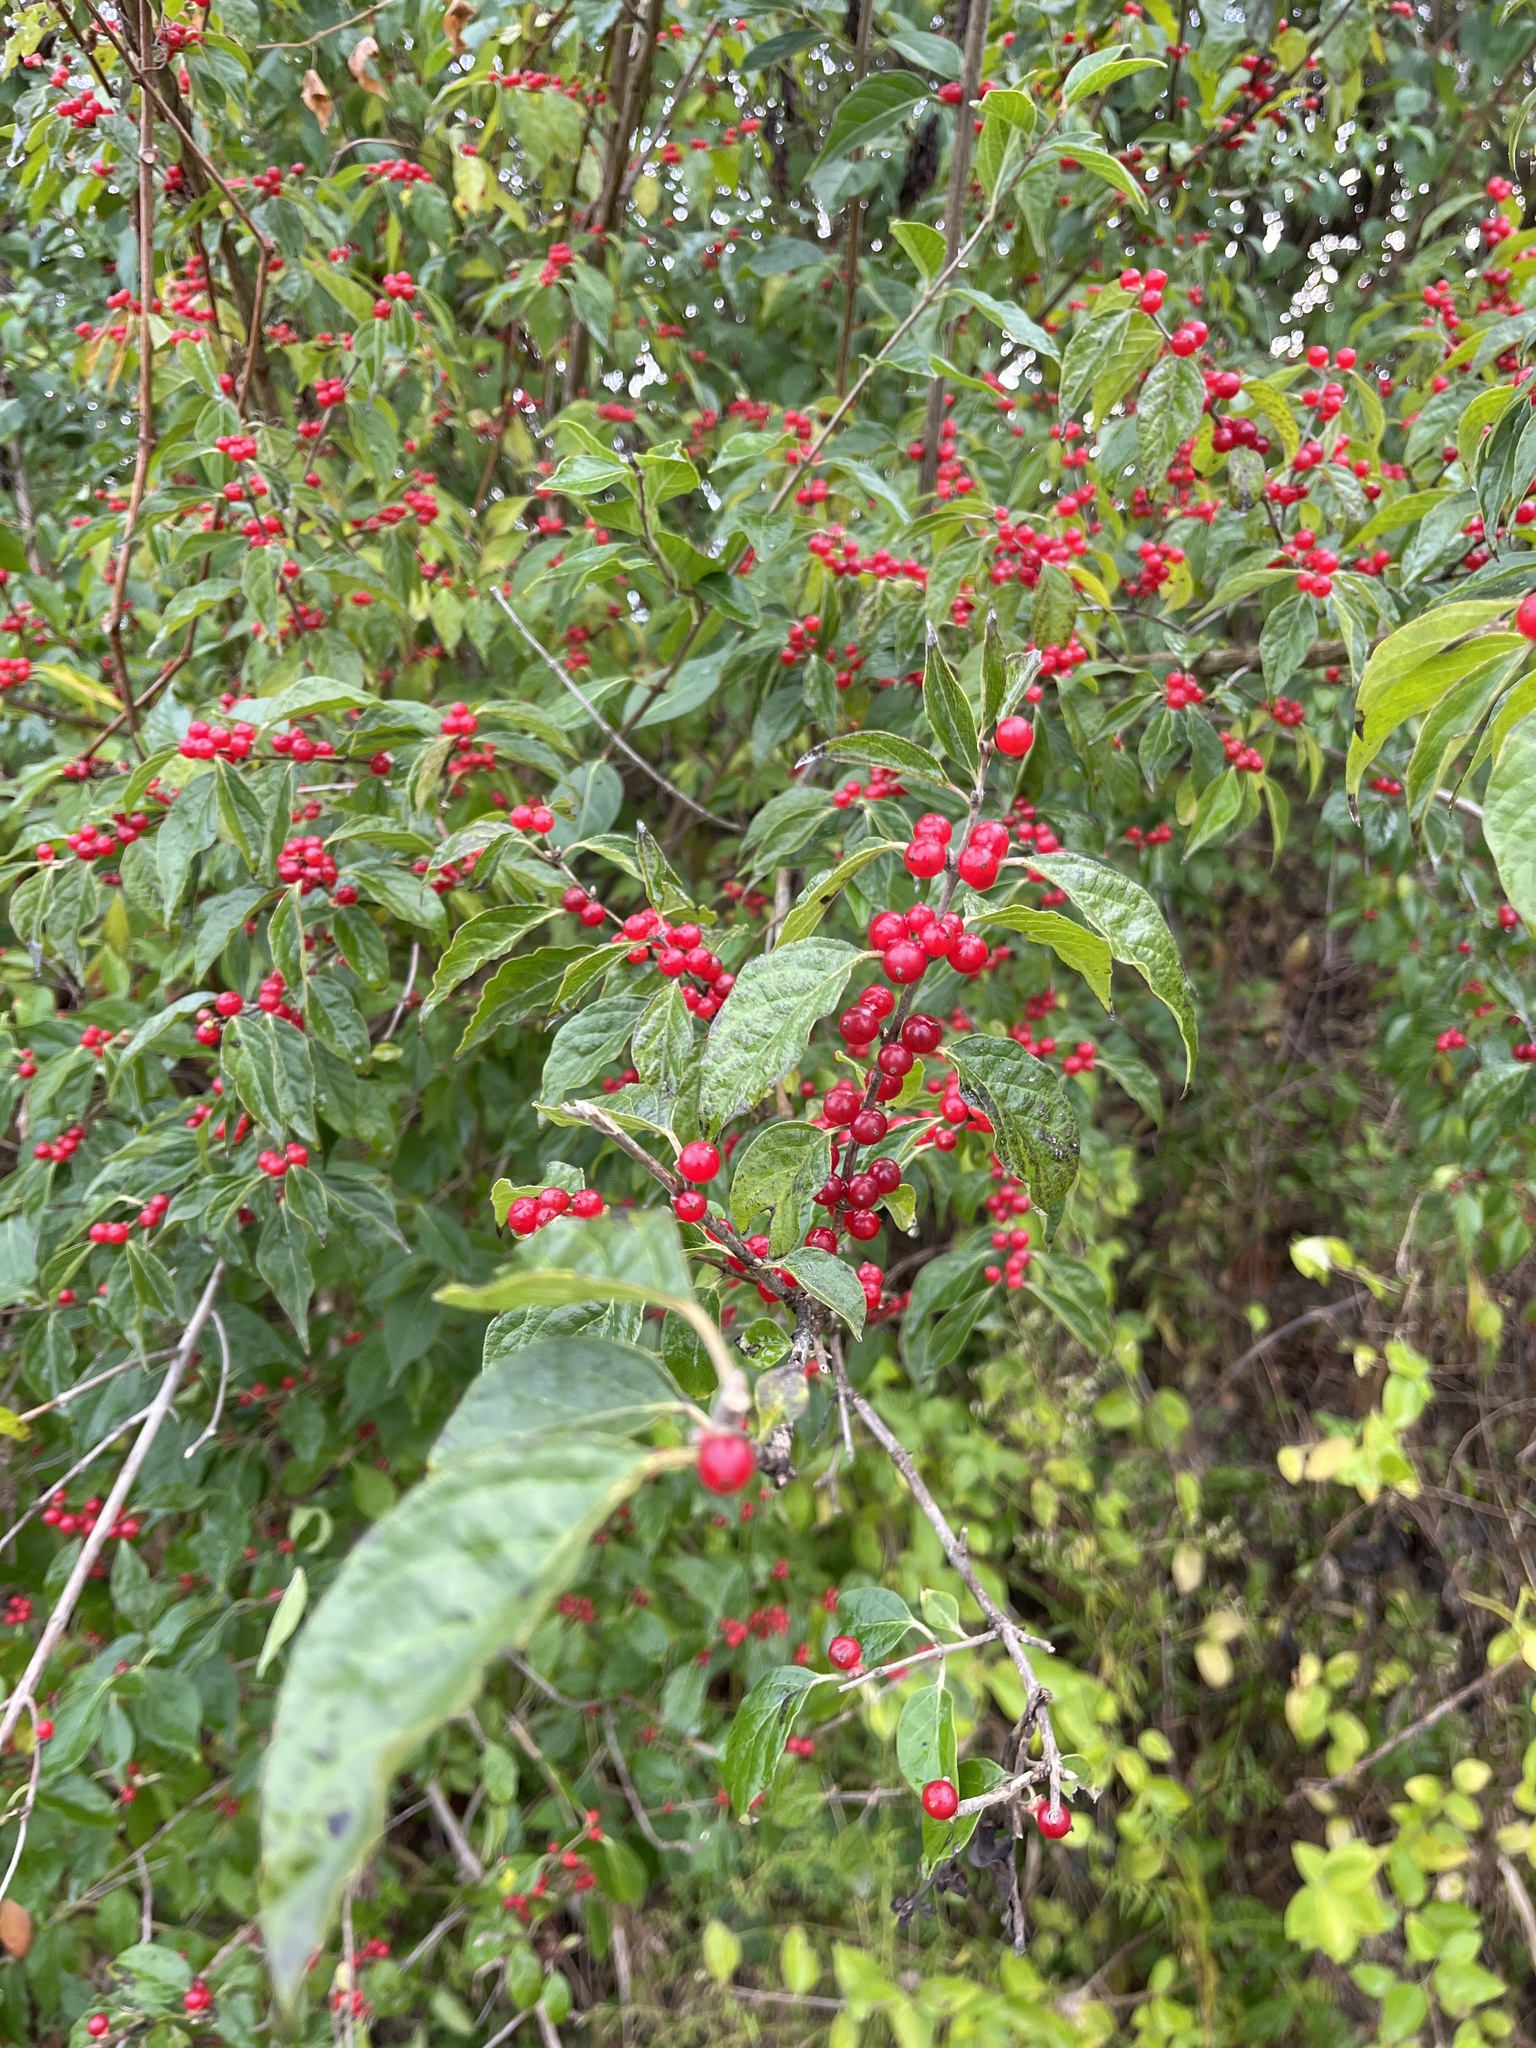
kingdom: Plantae
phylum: Tracheophyta
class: Magnoliopsida
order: Dipsacales
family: Caprifoliaceae
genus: Lonicera
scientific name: Lonicera maackii
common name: Amur honeysuckle
